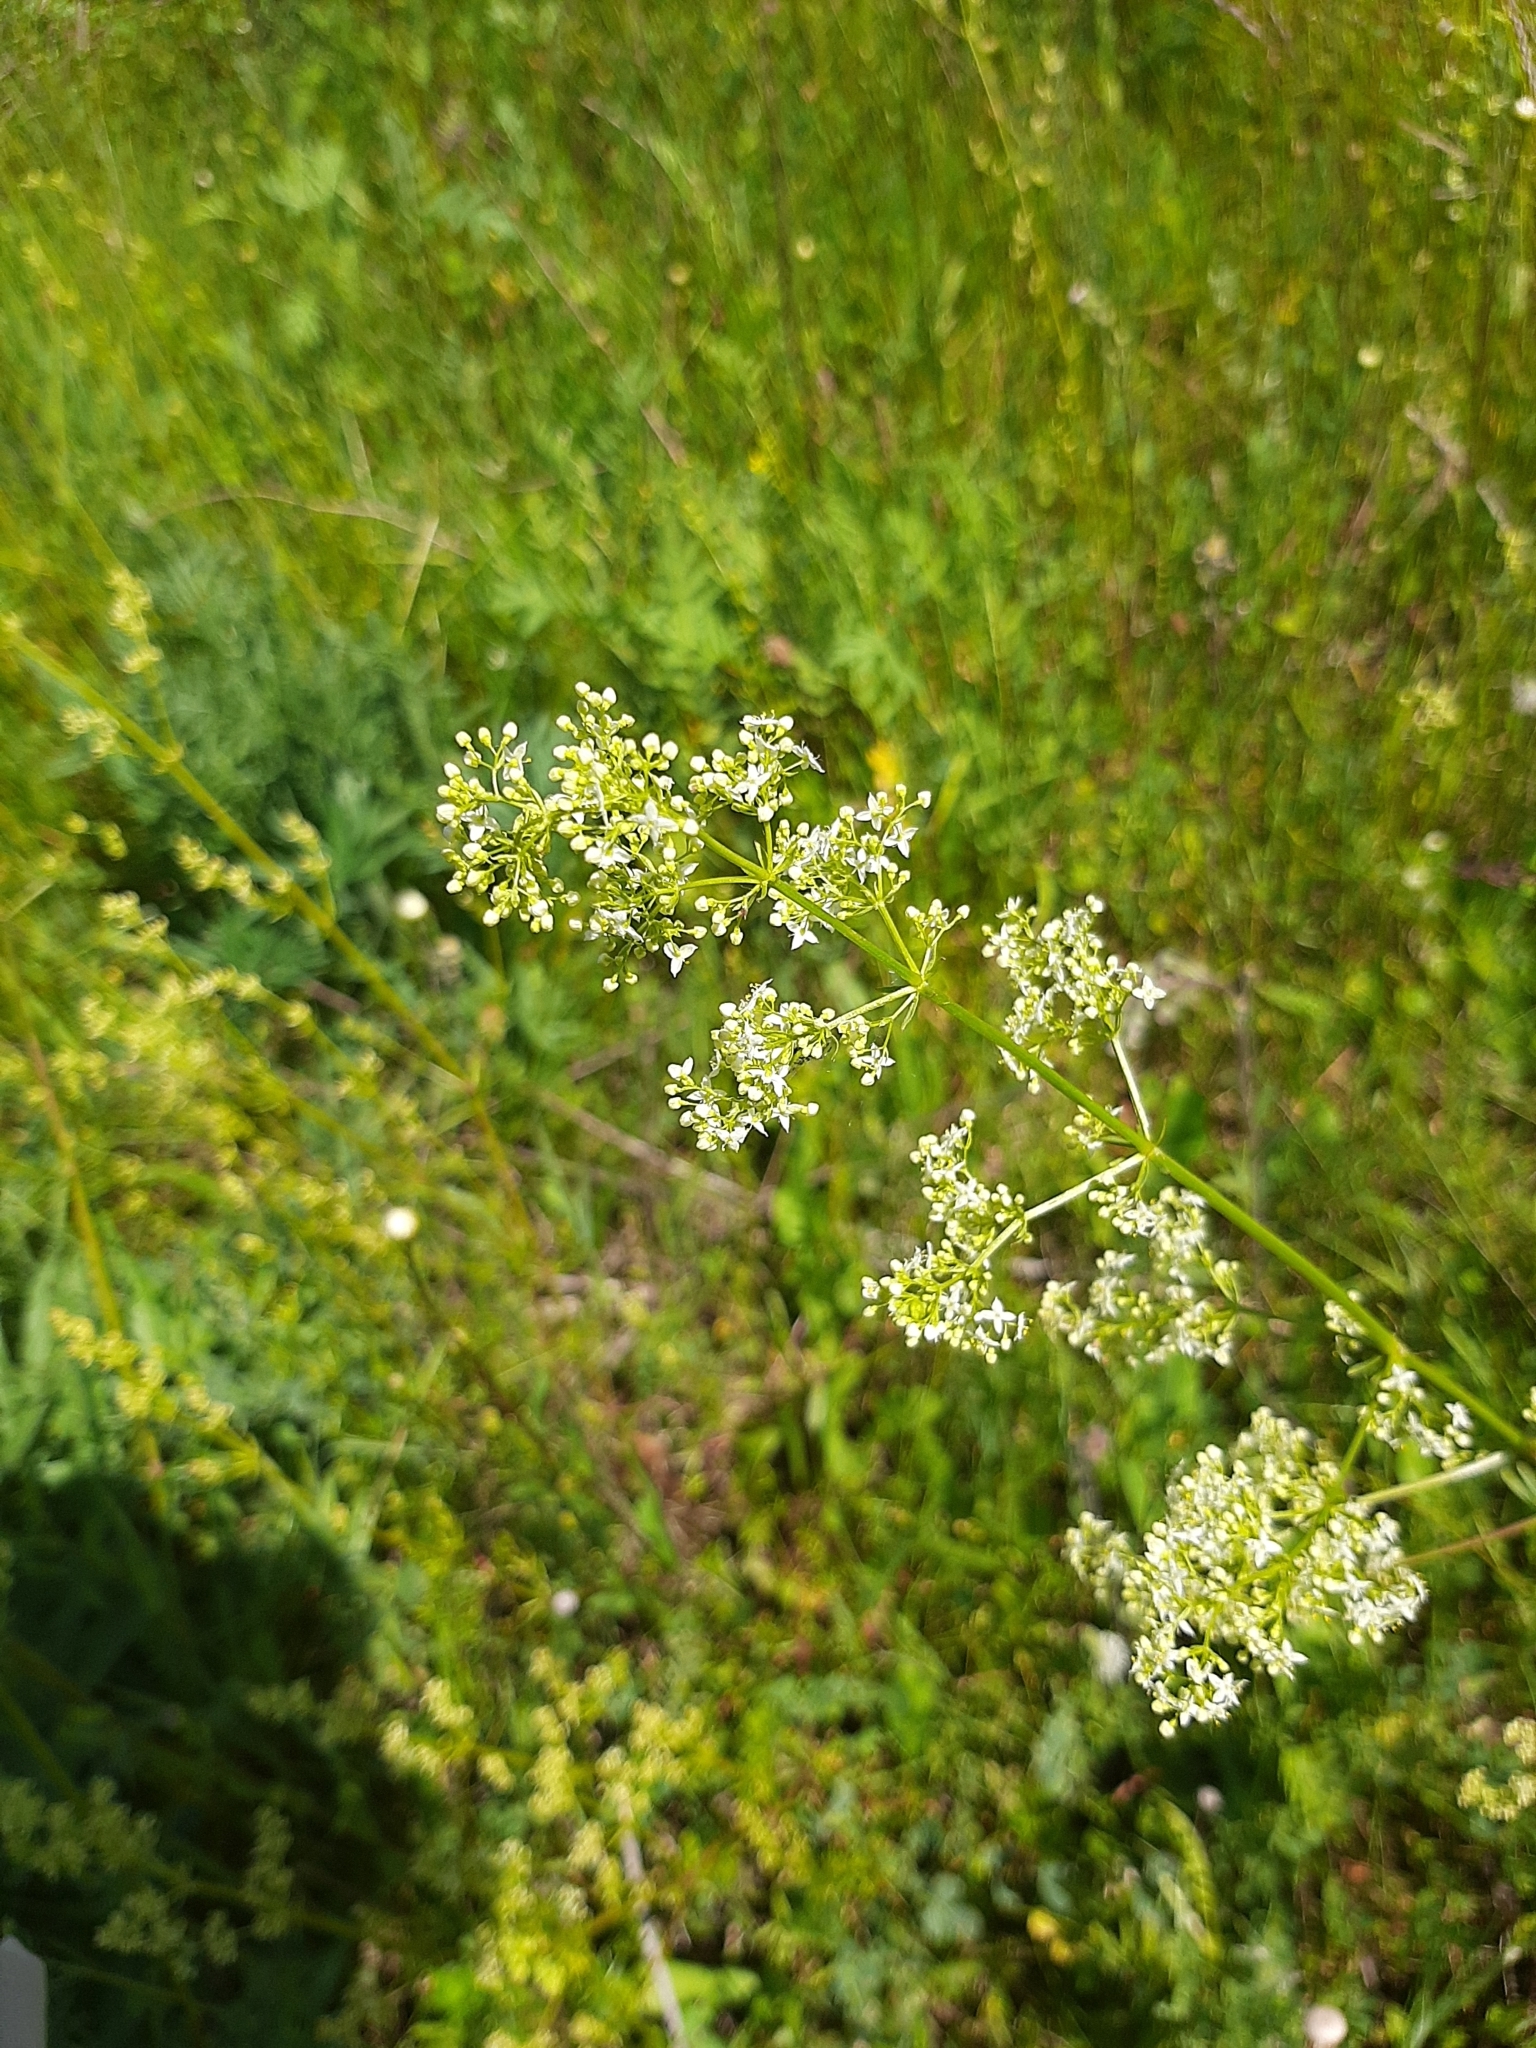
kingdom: Plantae
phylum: Tracheophyta
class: Magnoliopsida
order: Gentianales
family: Rubiaceae
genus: Galium
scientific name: Galium mollugo
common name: Hedge bedstraw
